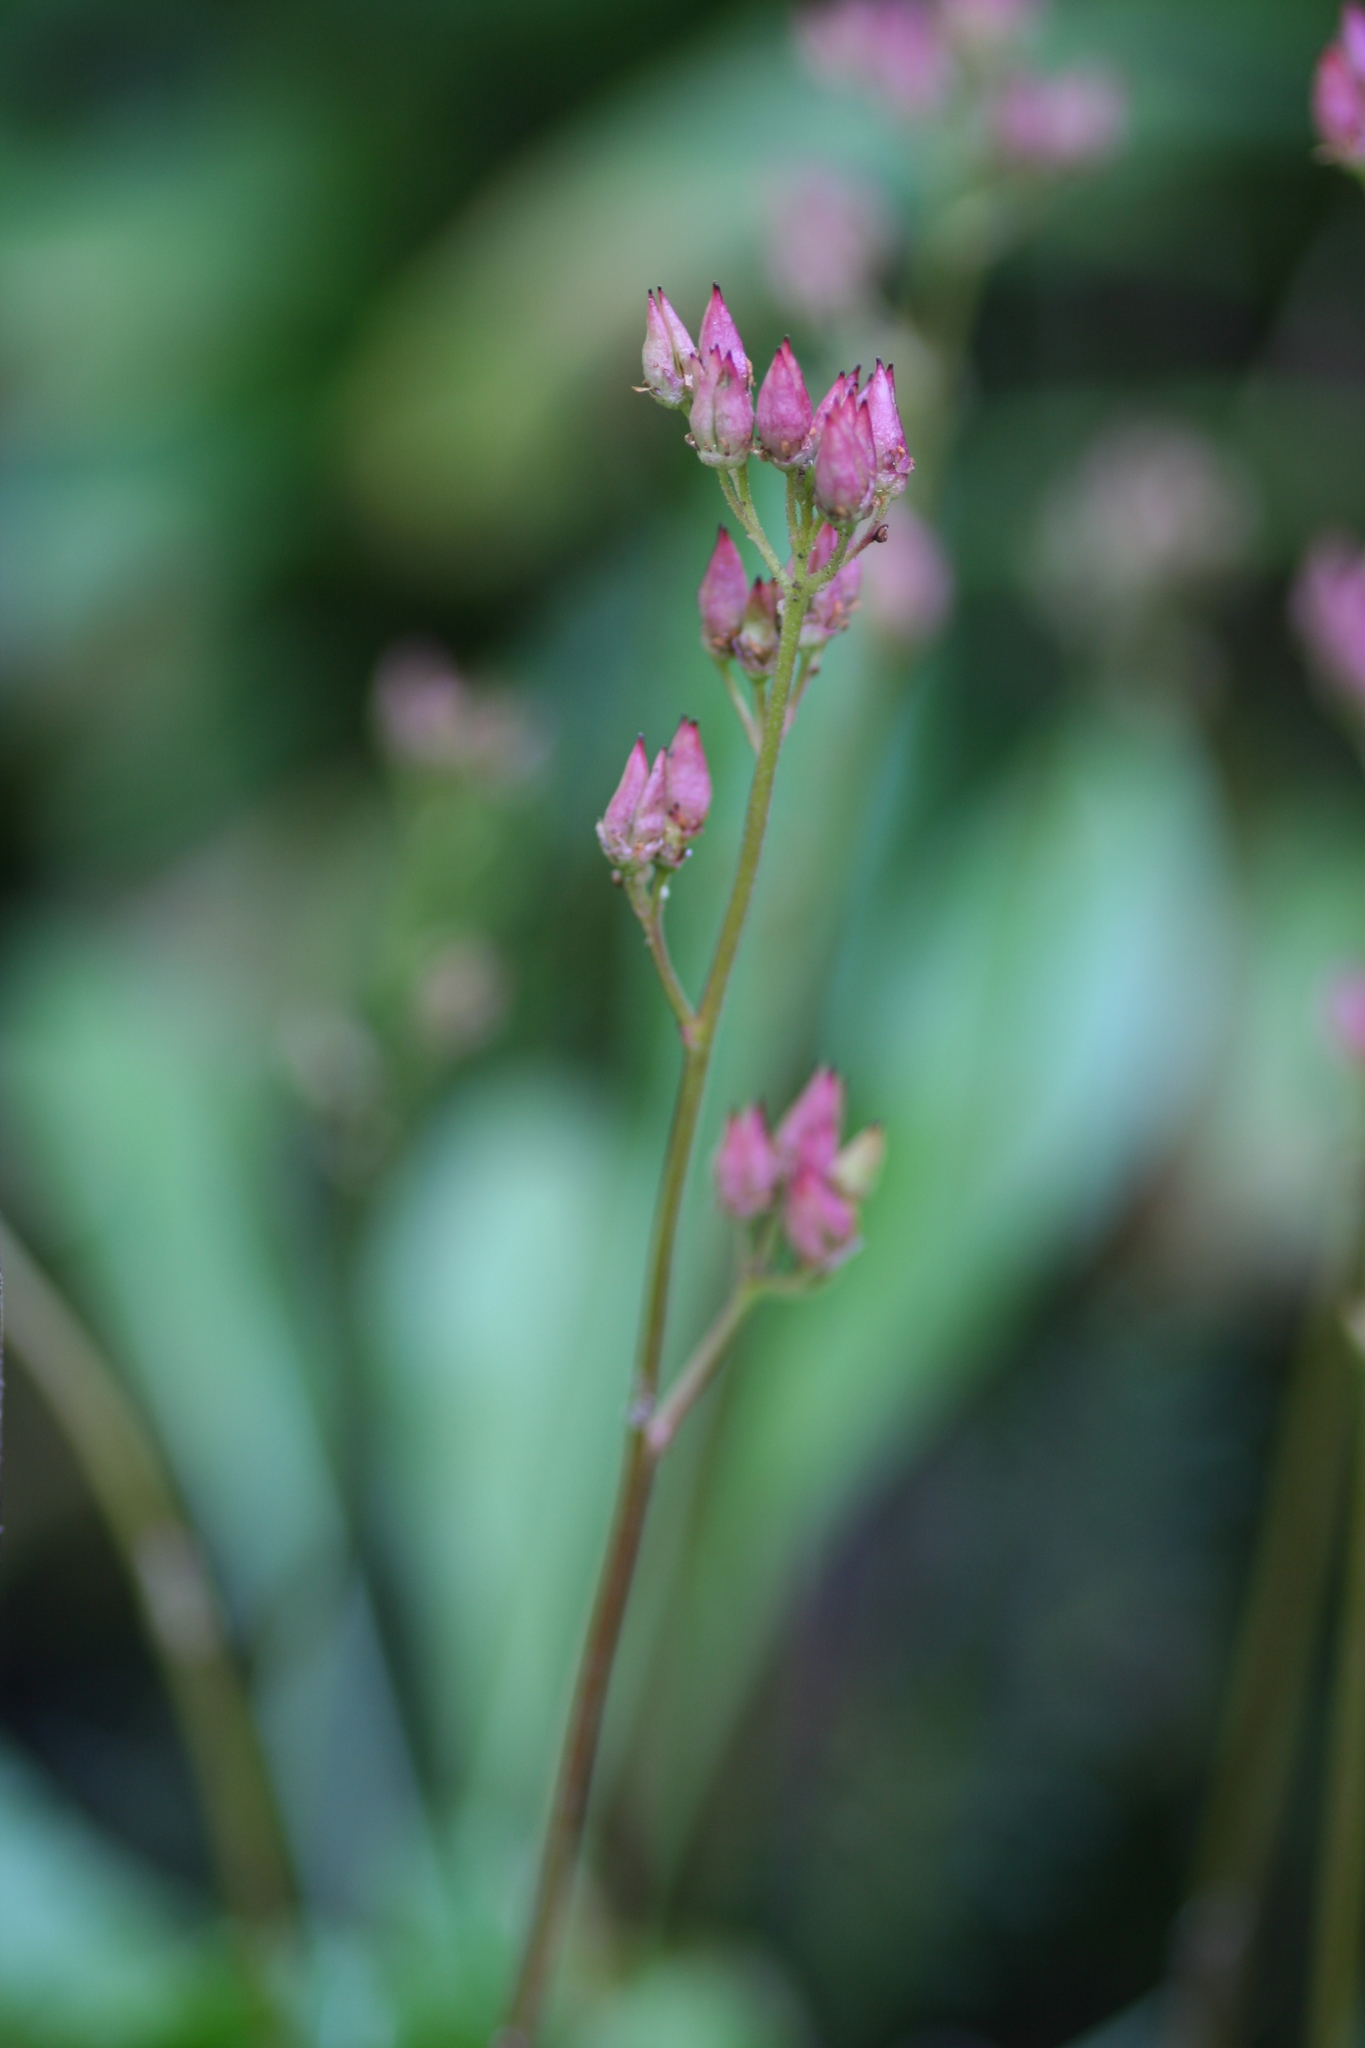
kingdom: Plantae
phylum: Tracheophyta
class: Magnoliopsida
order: Saxifragales
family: Saxifragaceae
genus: Leptarrhena
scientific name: Leptarrhena pyrolifolia
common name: Leatherleaf-saxifrage
